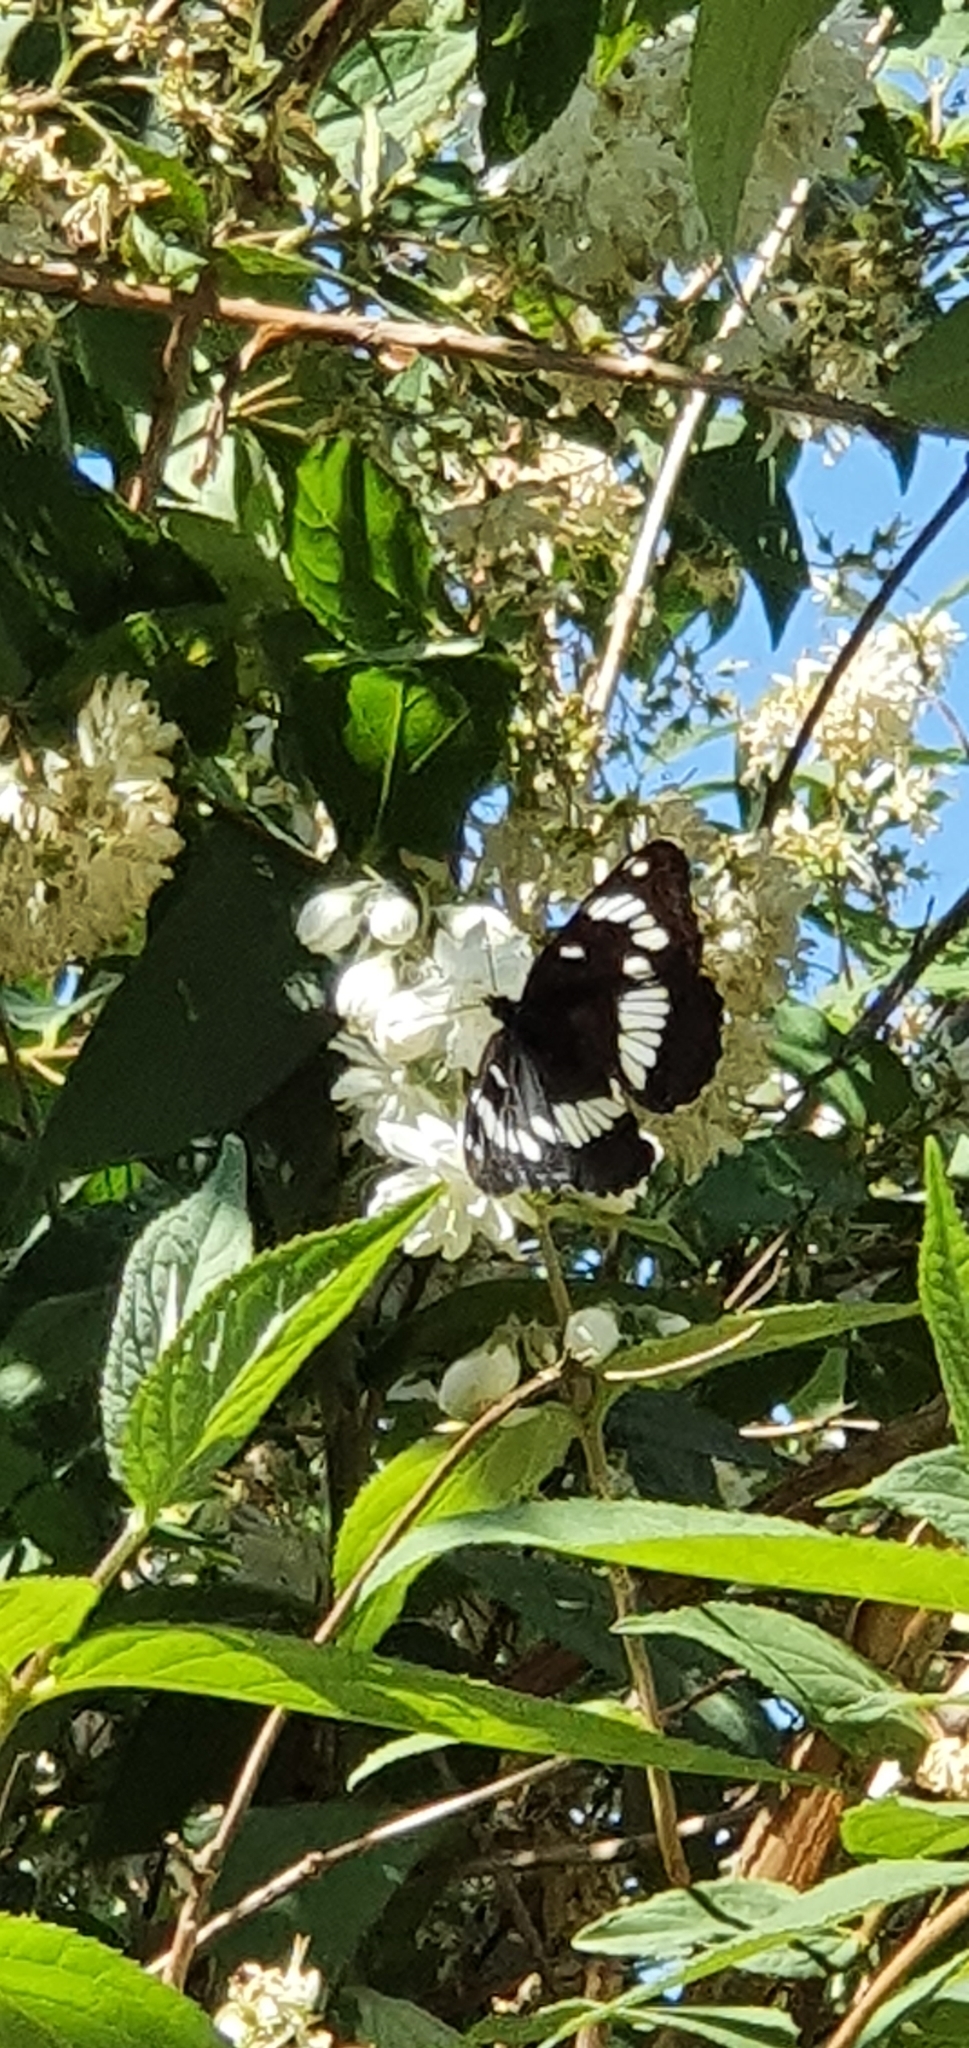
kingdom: Animalia
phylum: Arthropoda
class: Insecta
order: Lepidoptera
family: Nymphalidae
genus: Limenitis
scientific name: Limenitis reducta
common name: Southern white admiral
